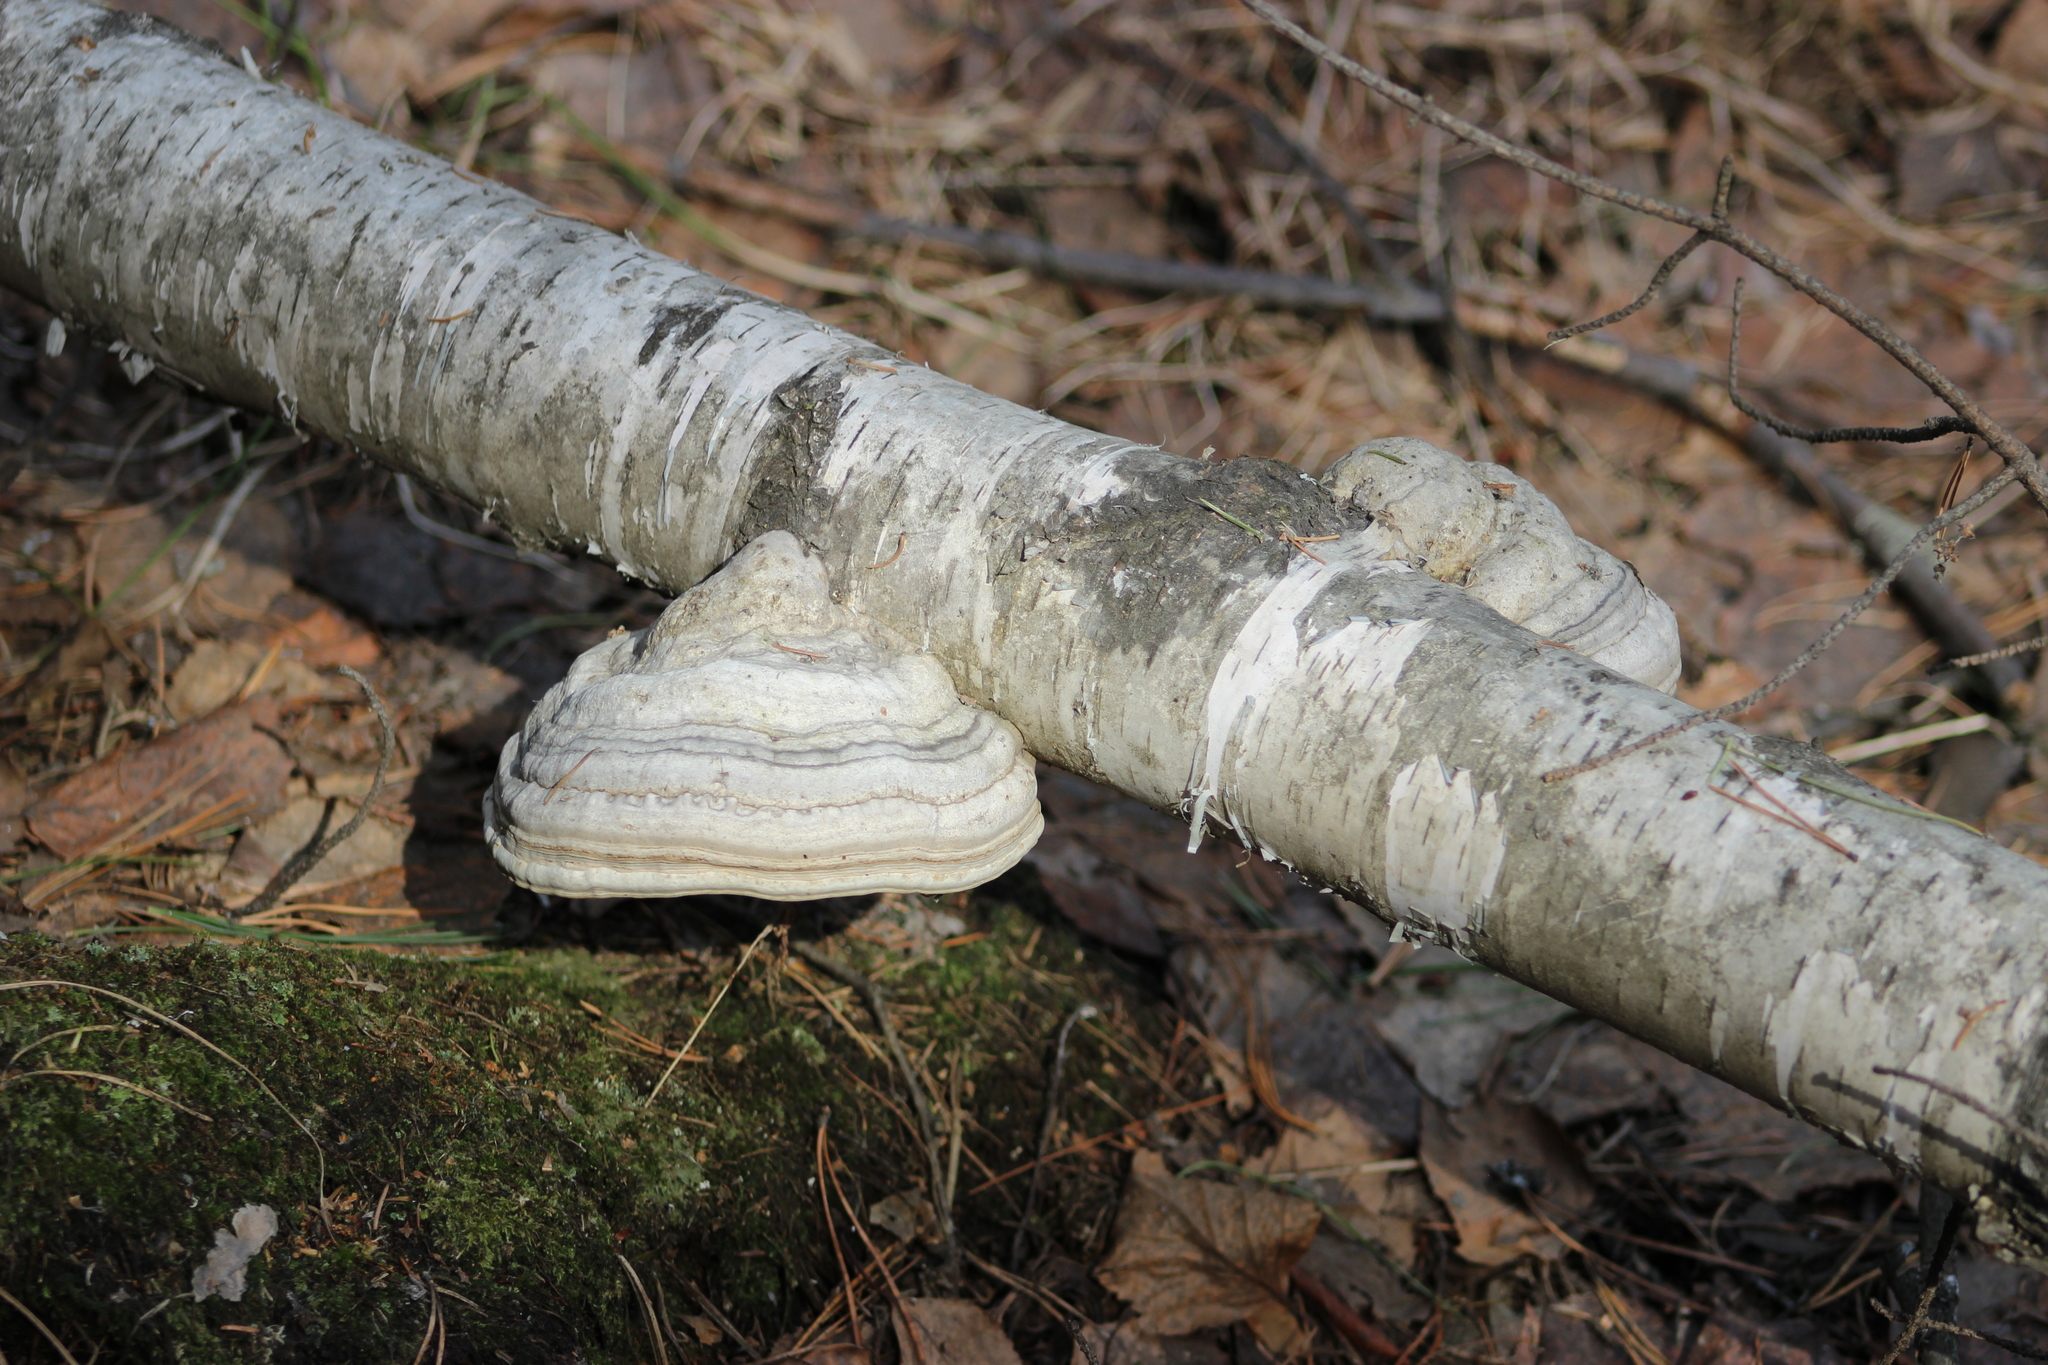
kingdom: Fungi
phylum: Basidiomycota
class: Agaricomycetes
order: Polyporales
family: Polyporaceae
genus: Fomes
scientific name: Fomes fomentarius
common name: Hoof fungus
